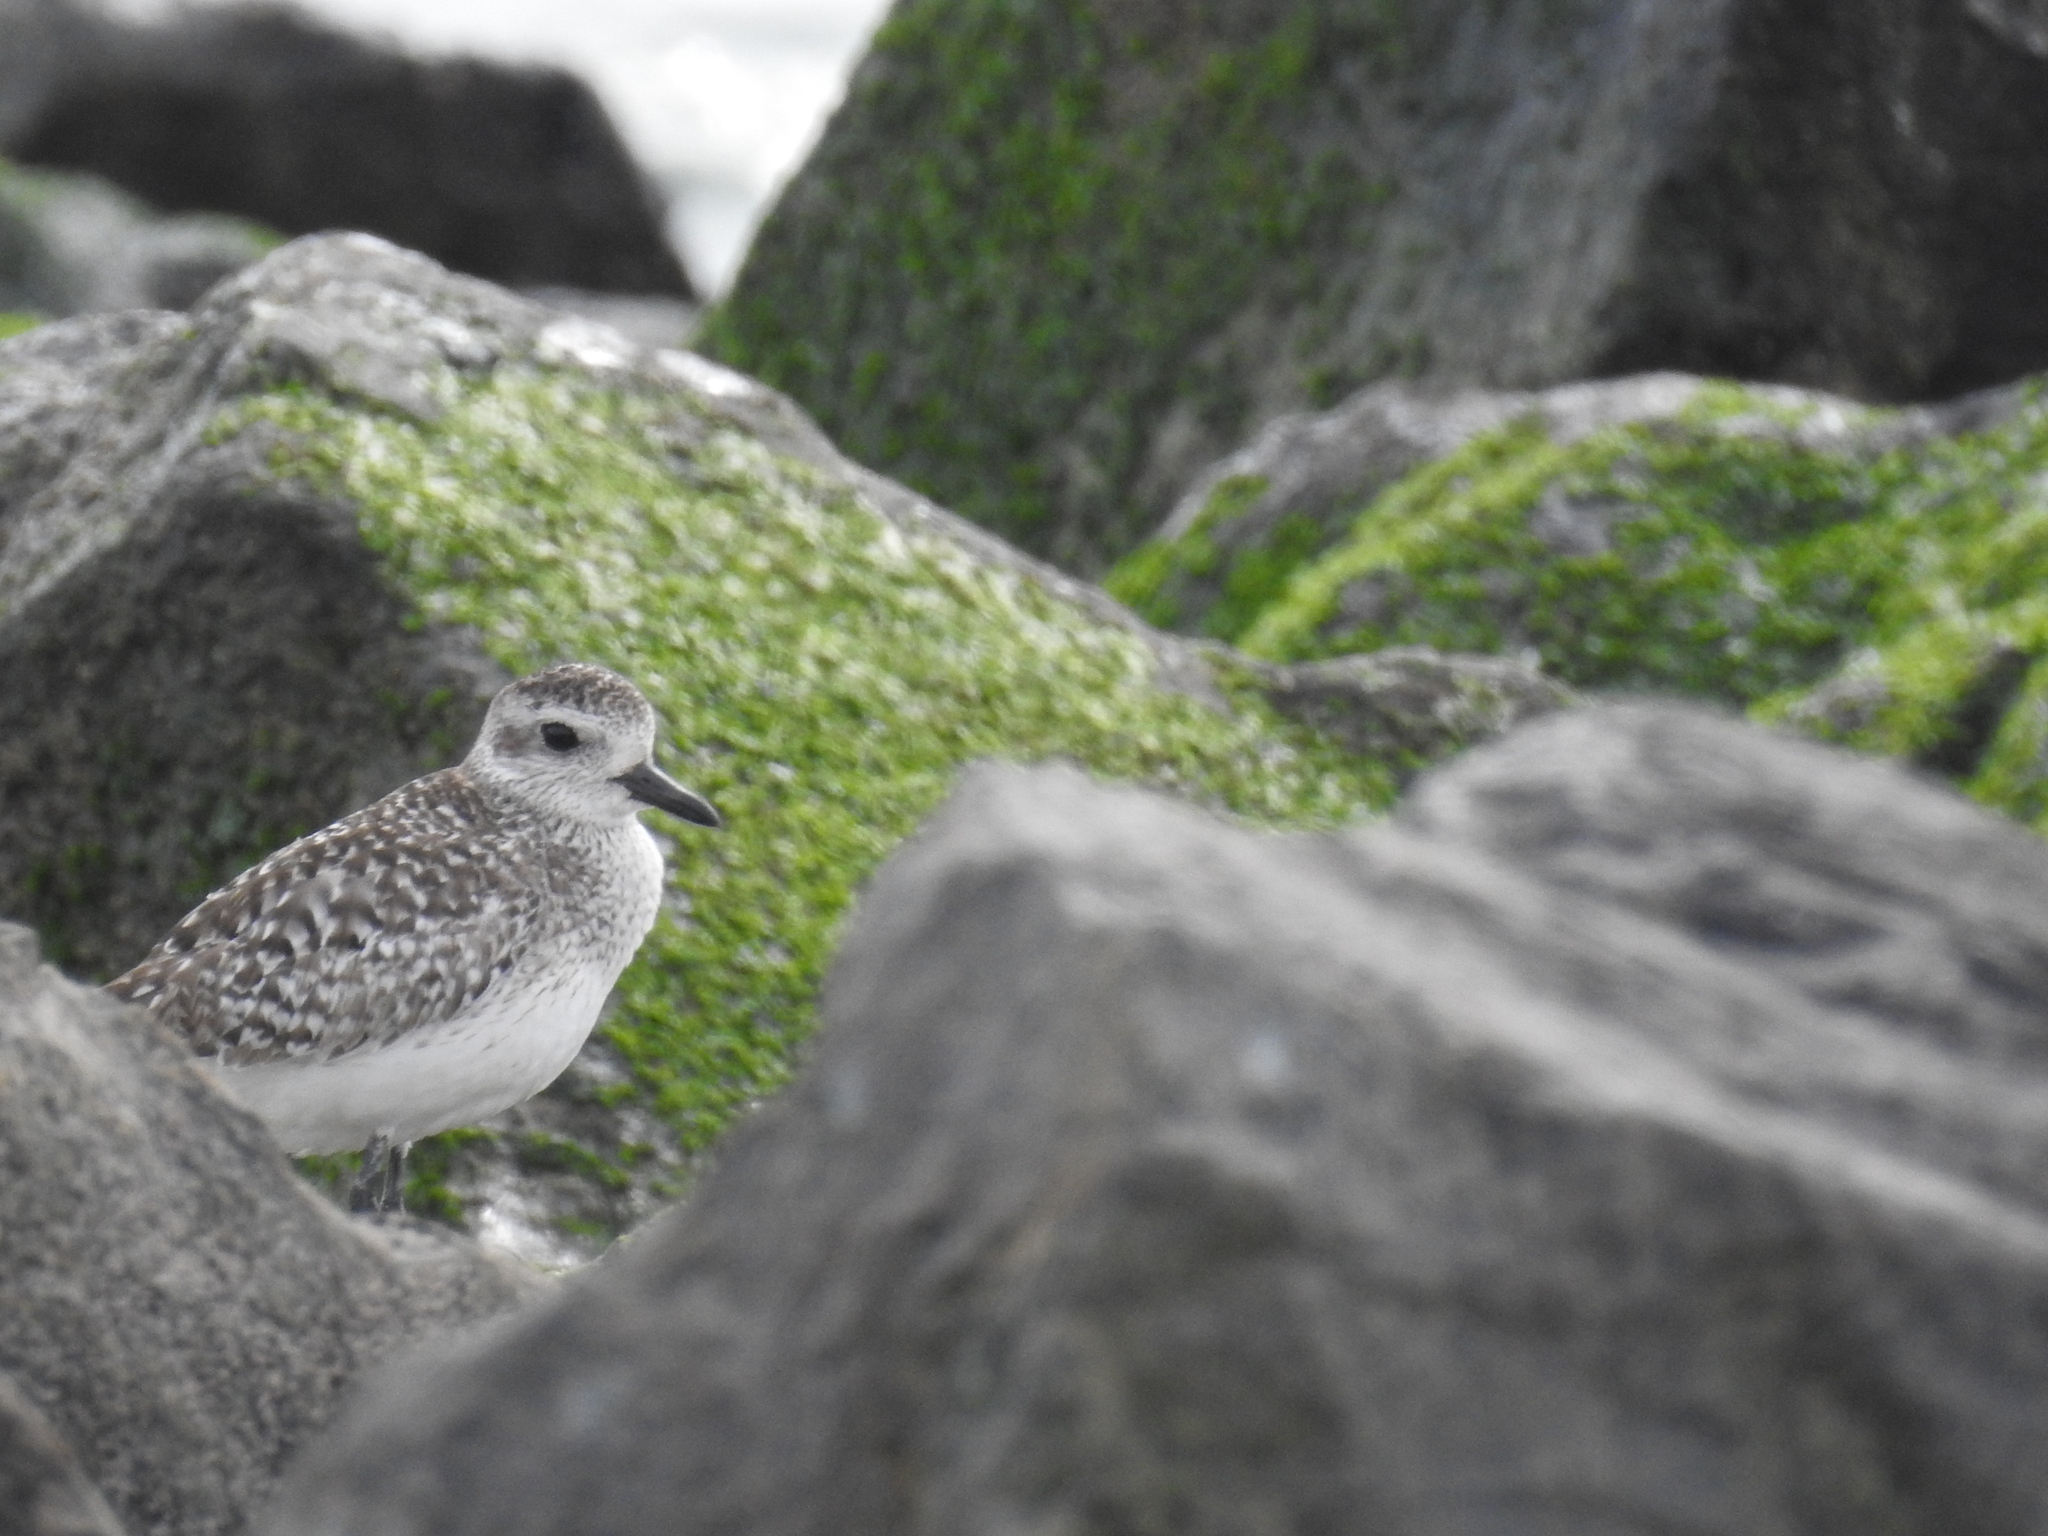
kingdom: Animalia
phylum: Chordata
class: Aves
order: Charadriiformes
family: Charadriidae
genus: Pluvialis
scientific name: Pluvialis squatarola
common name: Grey plover
